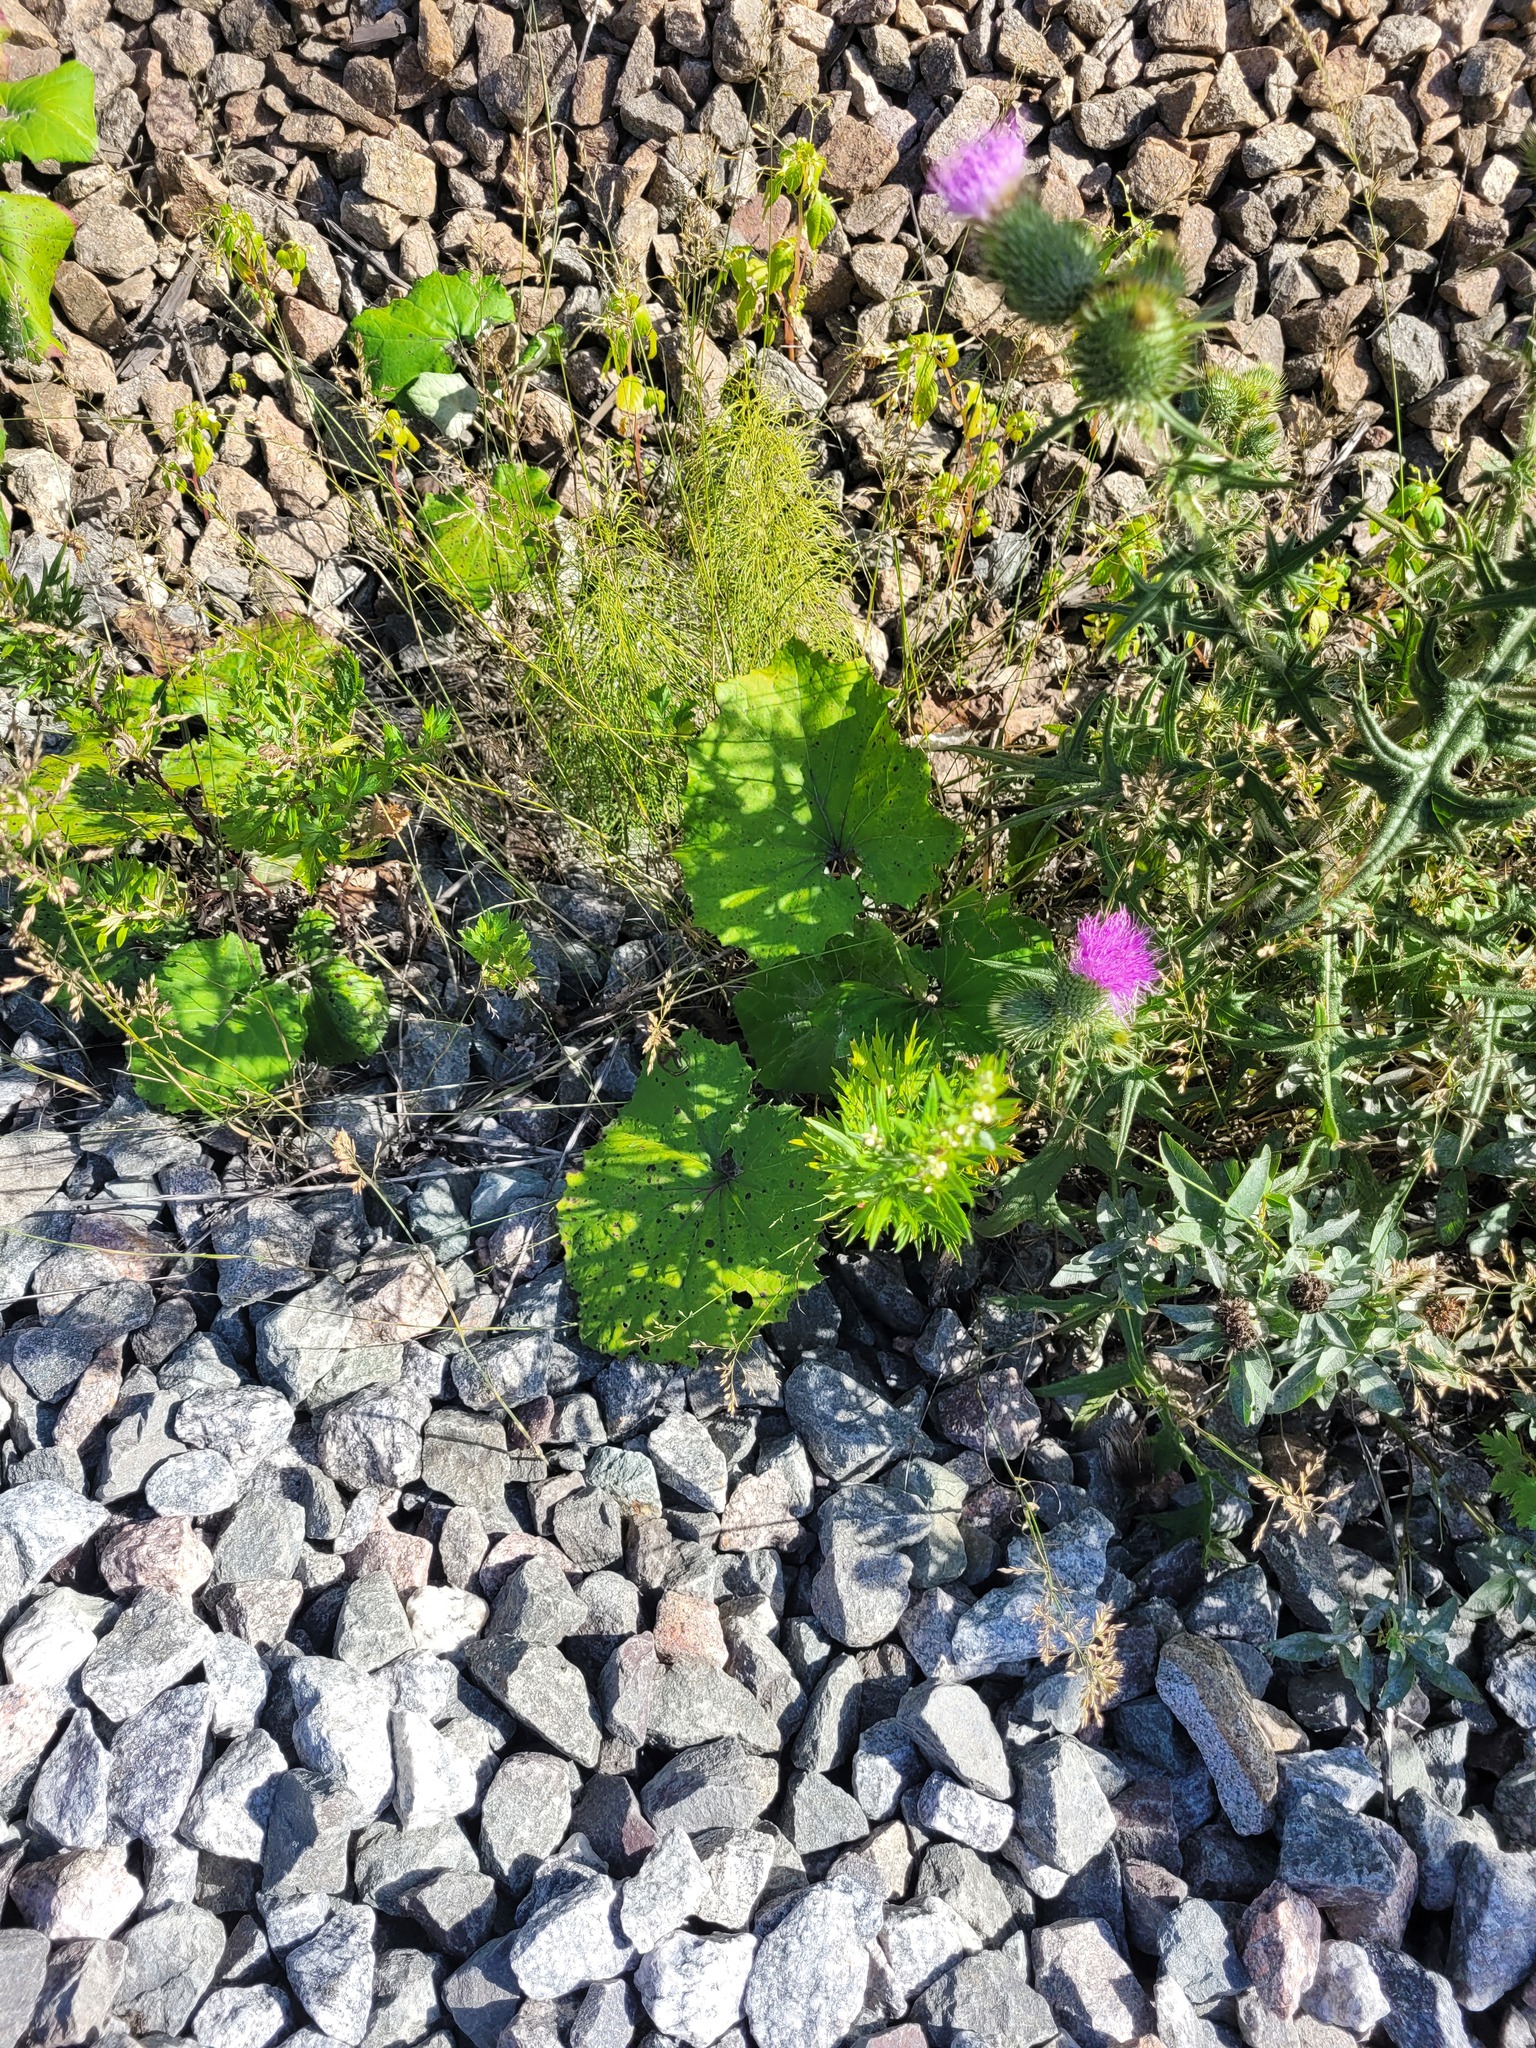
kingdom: Plantae
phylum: Tracheophyta
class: Magnoliopsida
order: Asterales
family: Asteraceae
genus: Tussilago
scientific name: Tussilago farfara
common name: Coltsfoot
